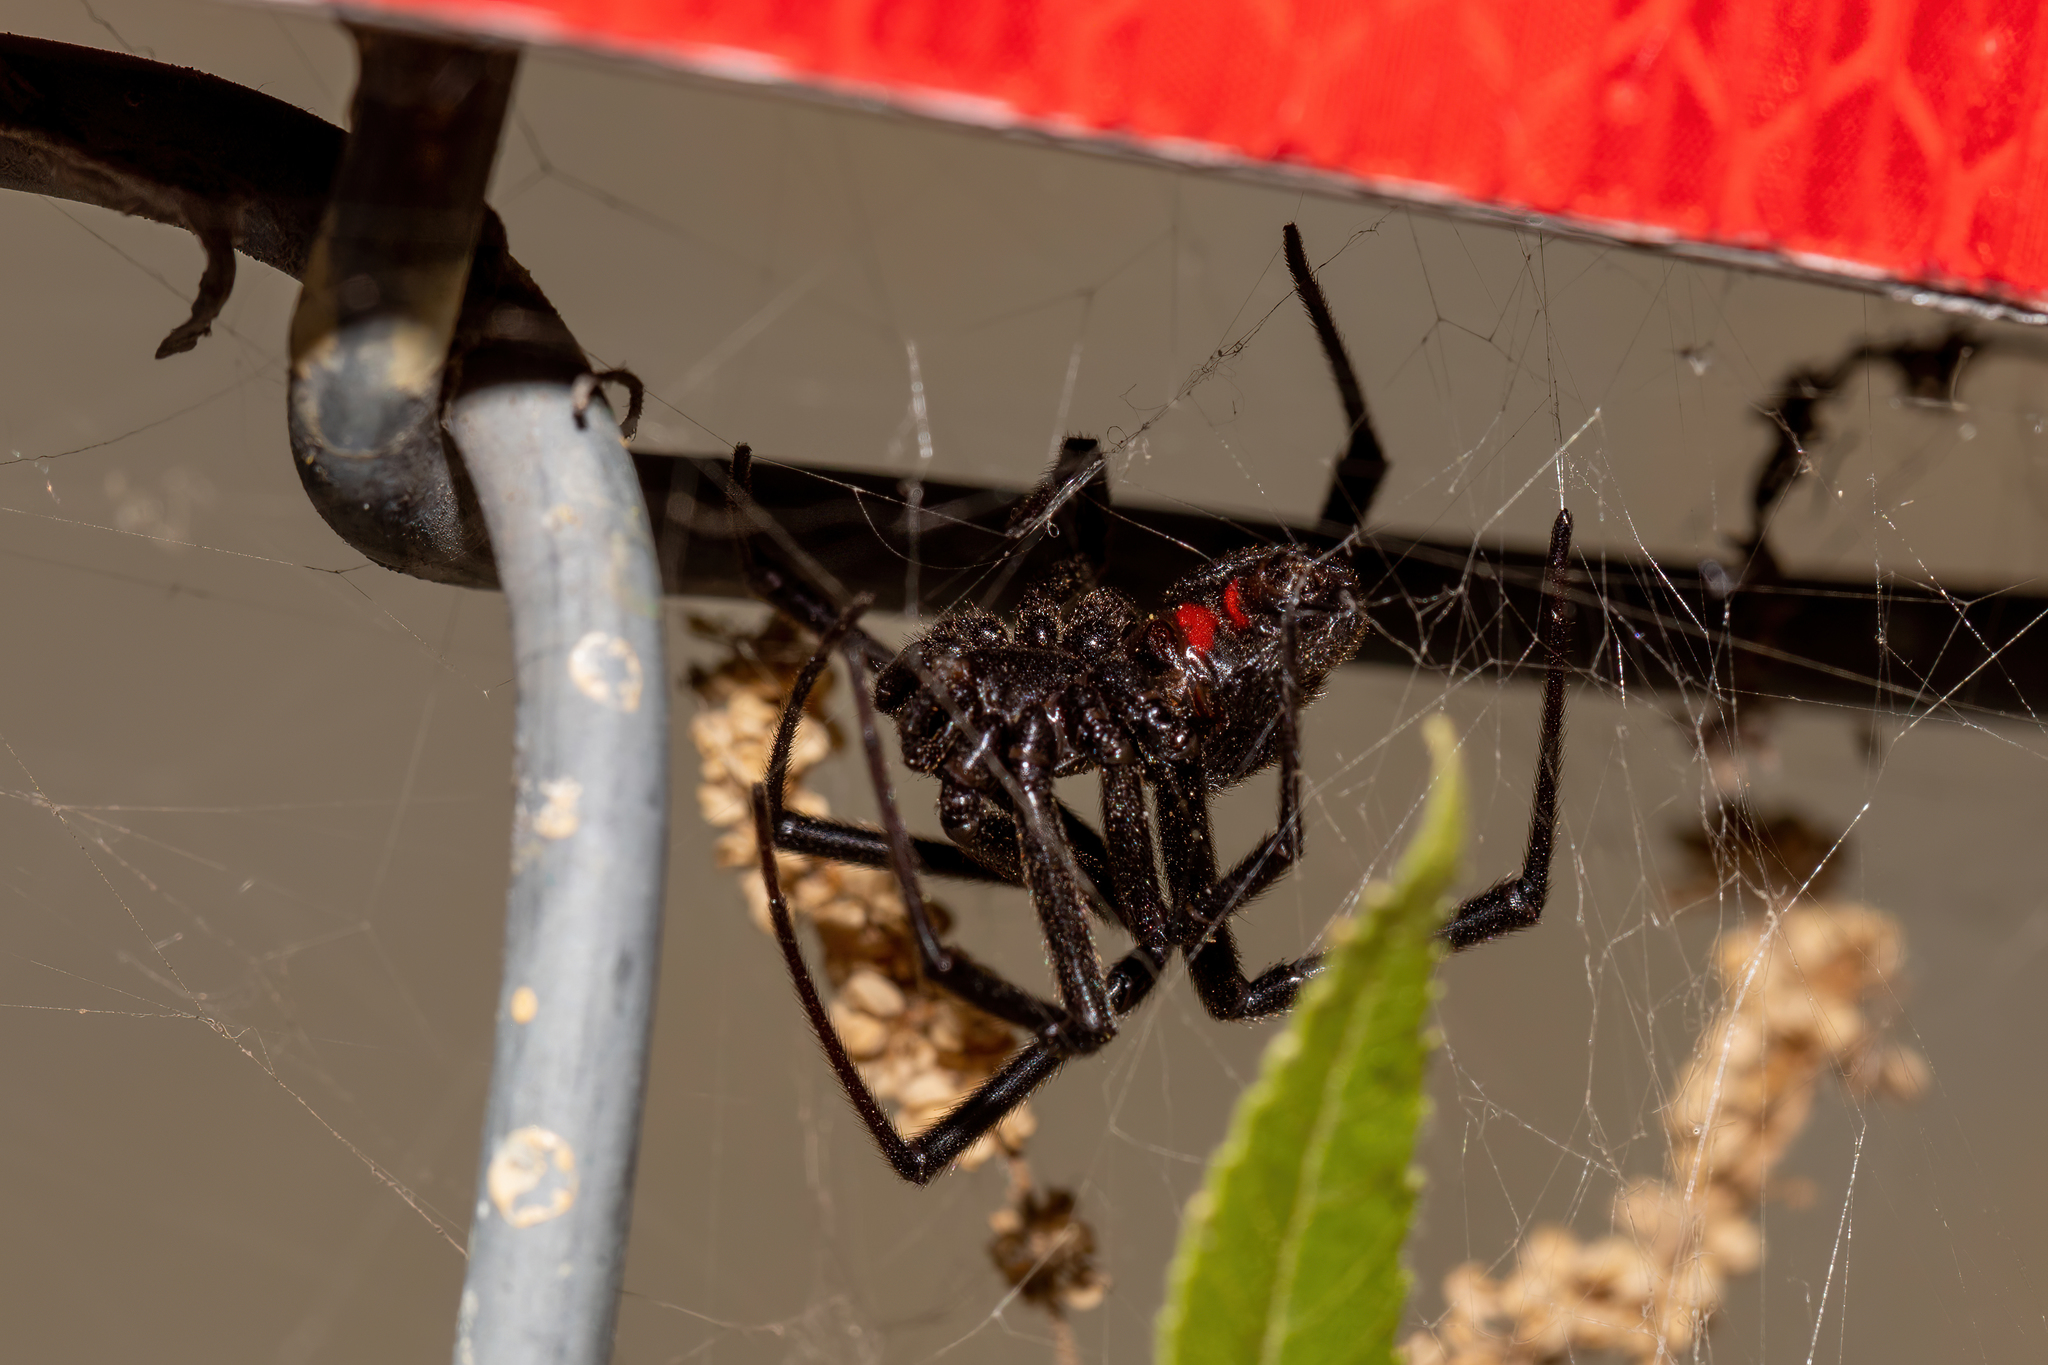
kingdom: Animalia
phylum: Arthropoda
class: Arachnida
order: Araneae
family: Theridiidae
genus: Latrodectus
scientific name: Latrodectus hesperus
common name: Western black widow
